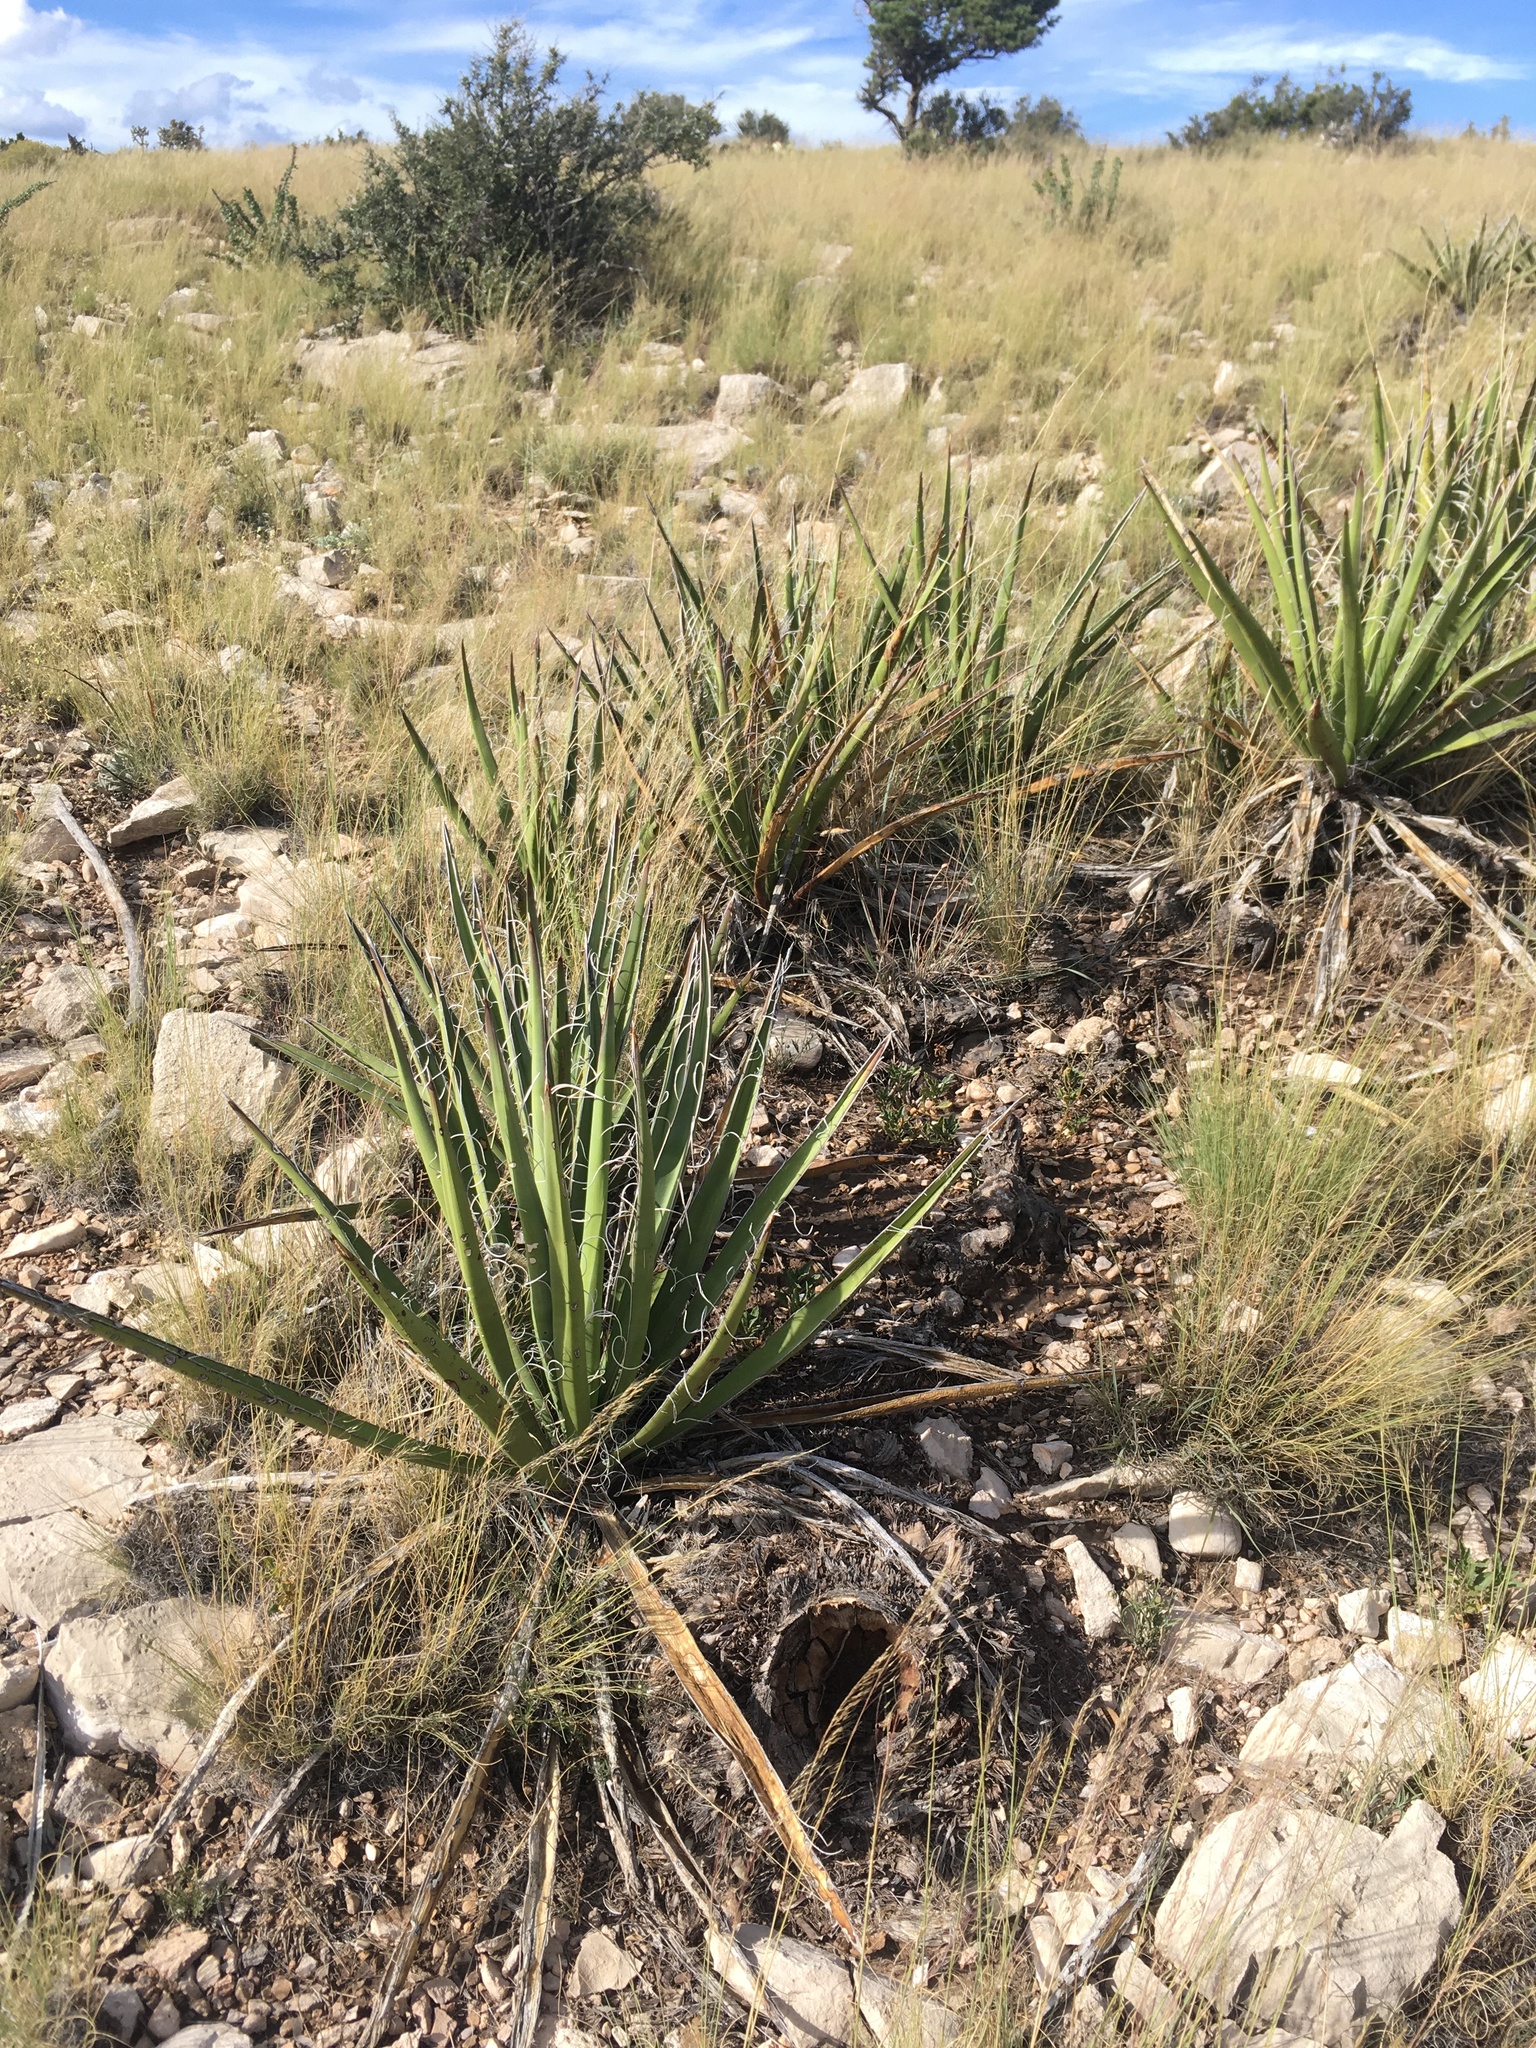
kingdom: Plantae
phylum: Tracheophyta
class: Liliopsida
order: Asparagales
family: Asparagaceae
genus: Yucca
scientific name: Yucca baccata
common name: Banana yucca
